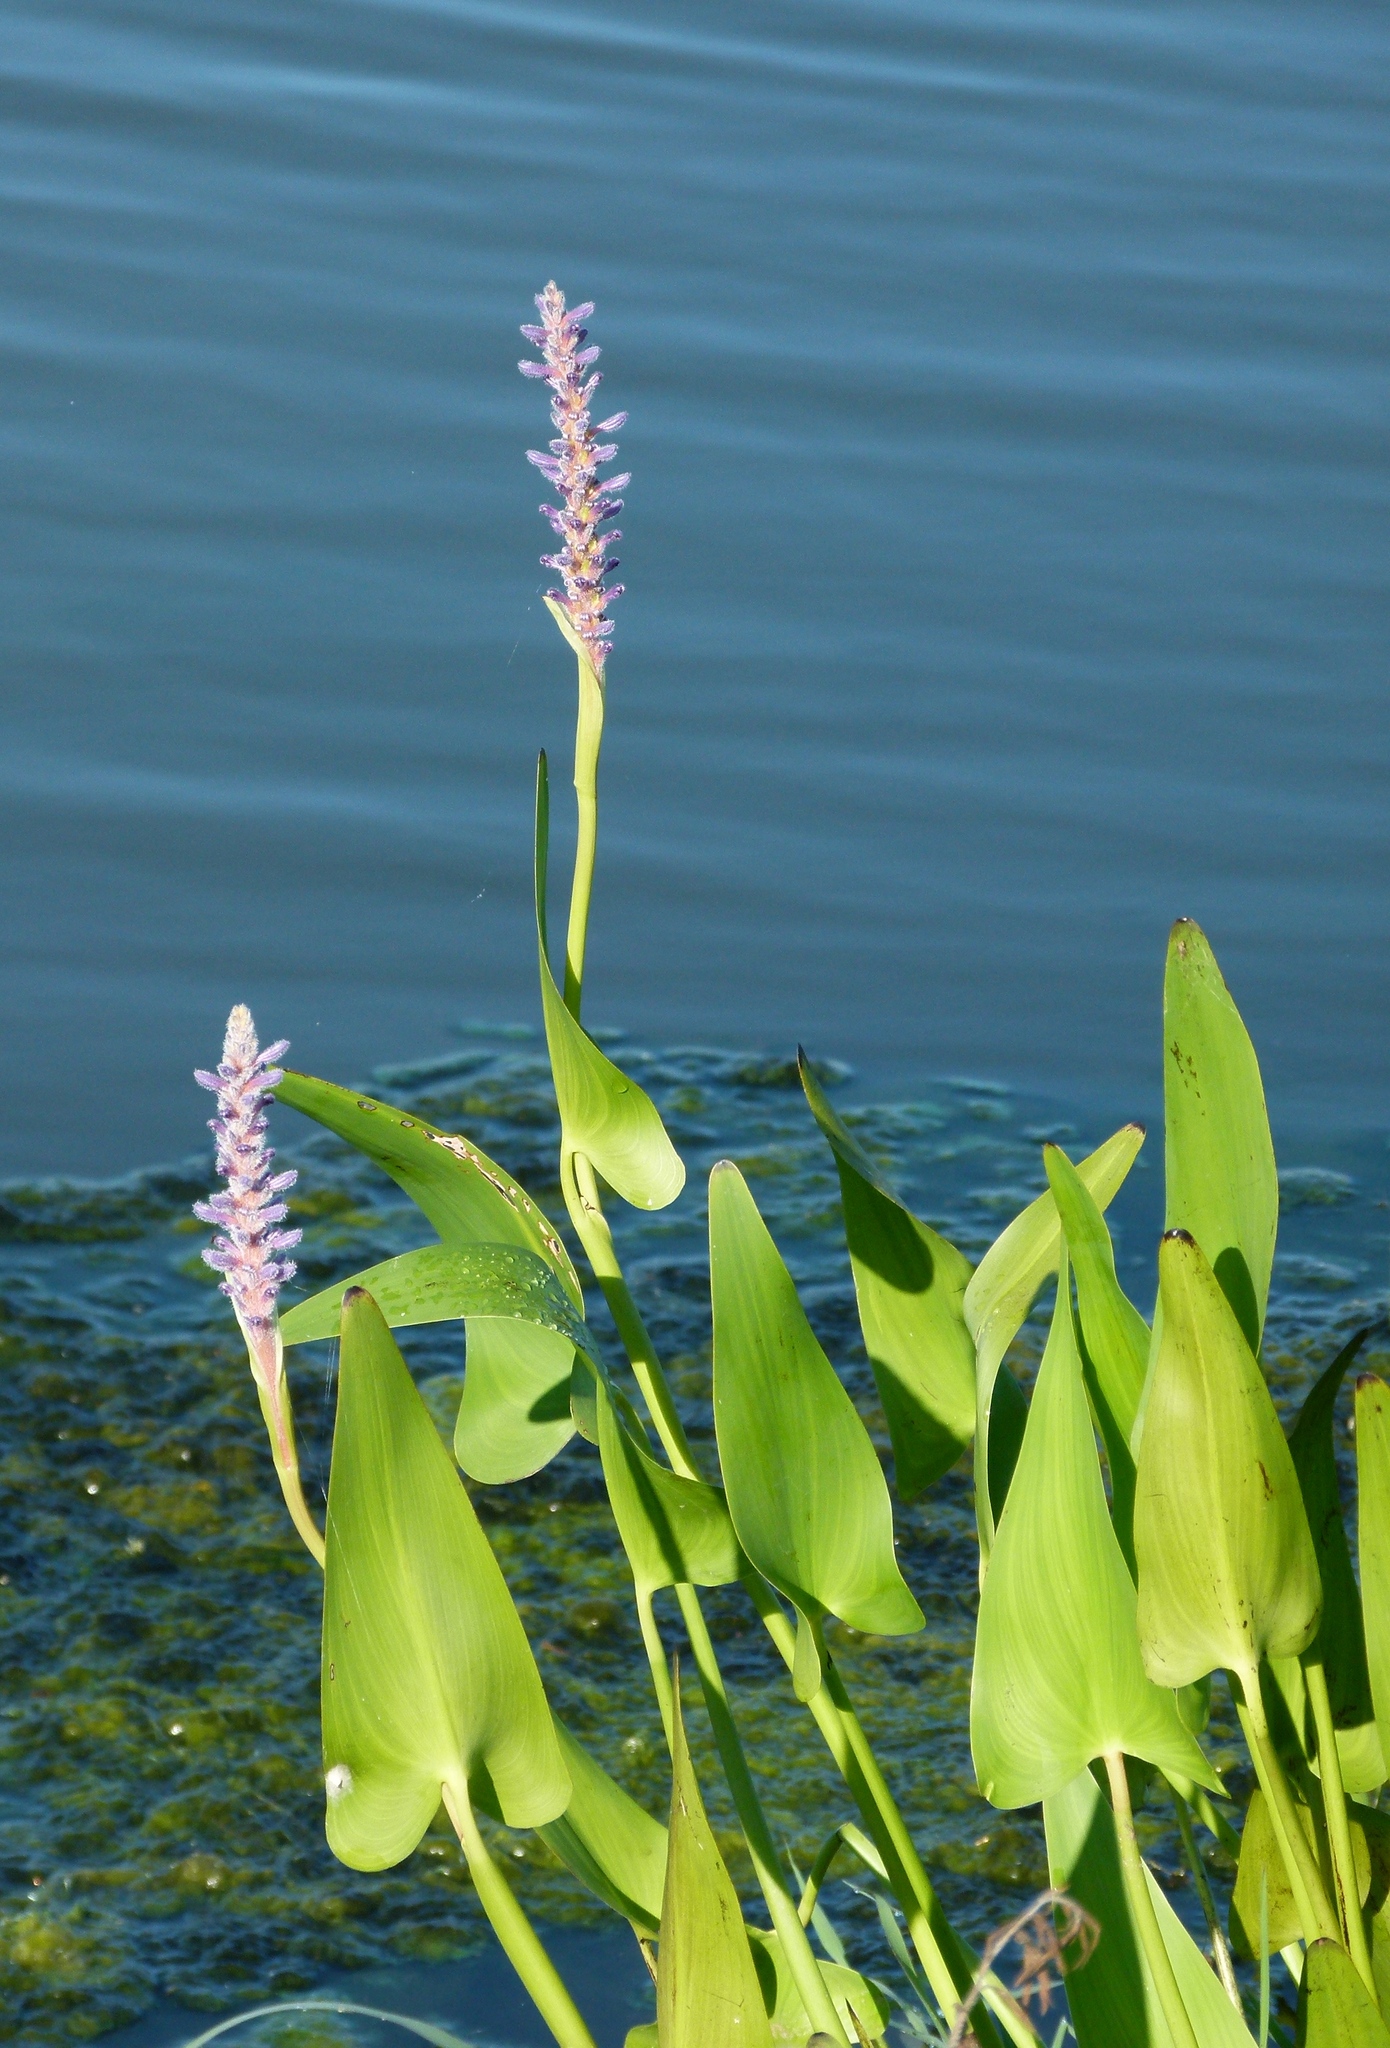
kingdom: Plantae
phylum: Tracheophyta
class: Liliopsida
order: Commelinales
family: Pontederiaceae
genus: Pontederia
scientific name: Pontederia cordata
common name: Pickerelweed
